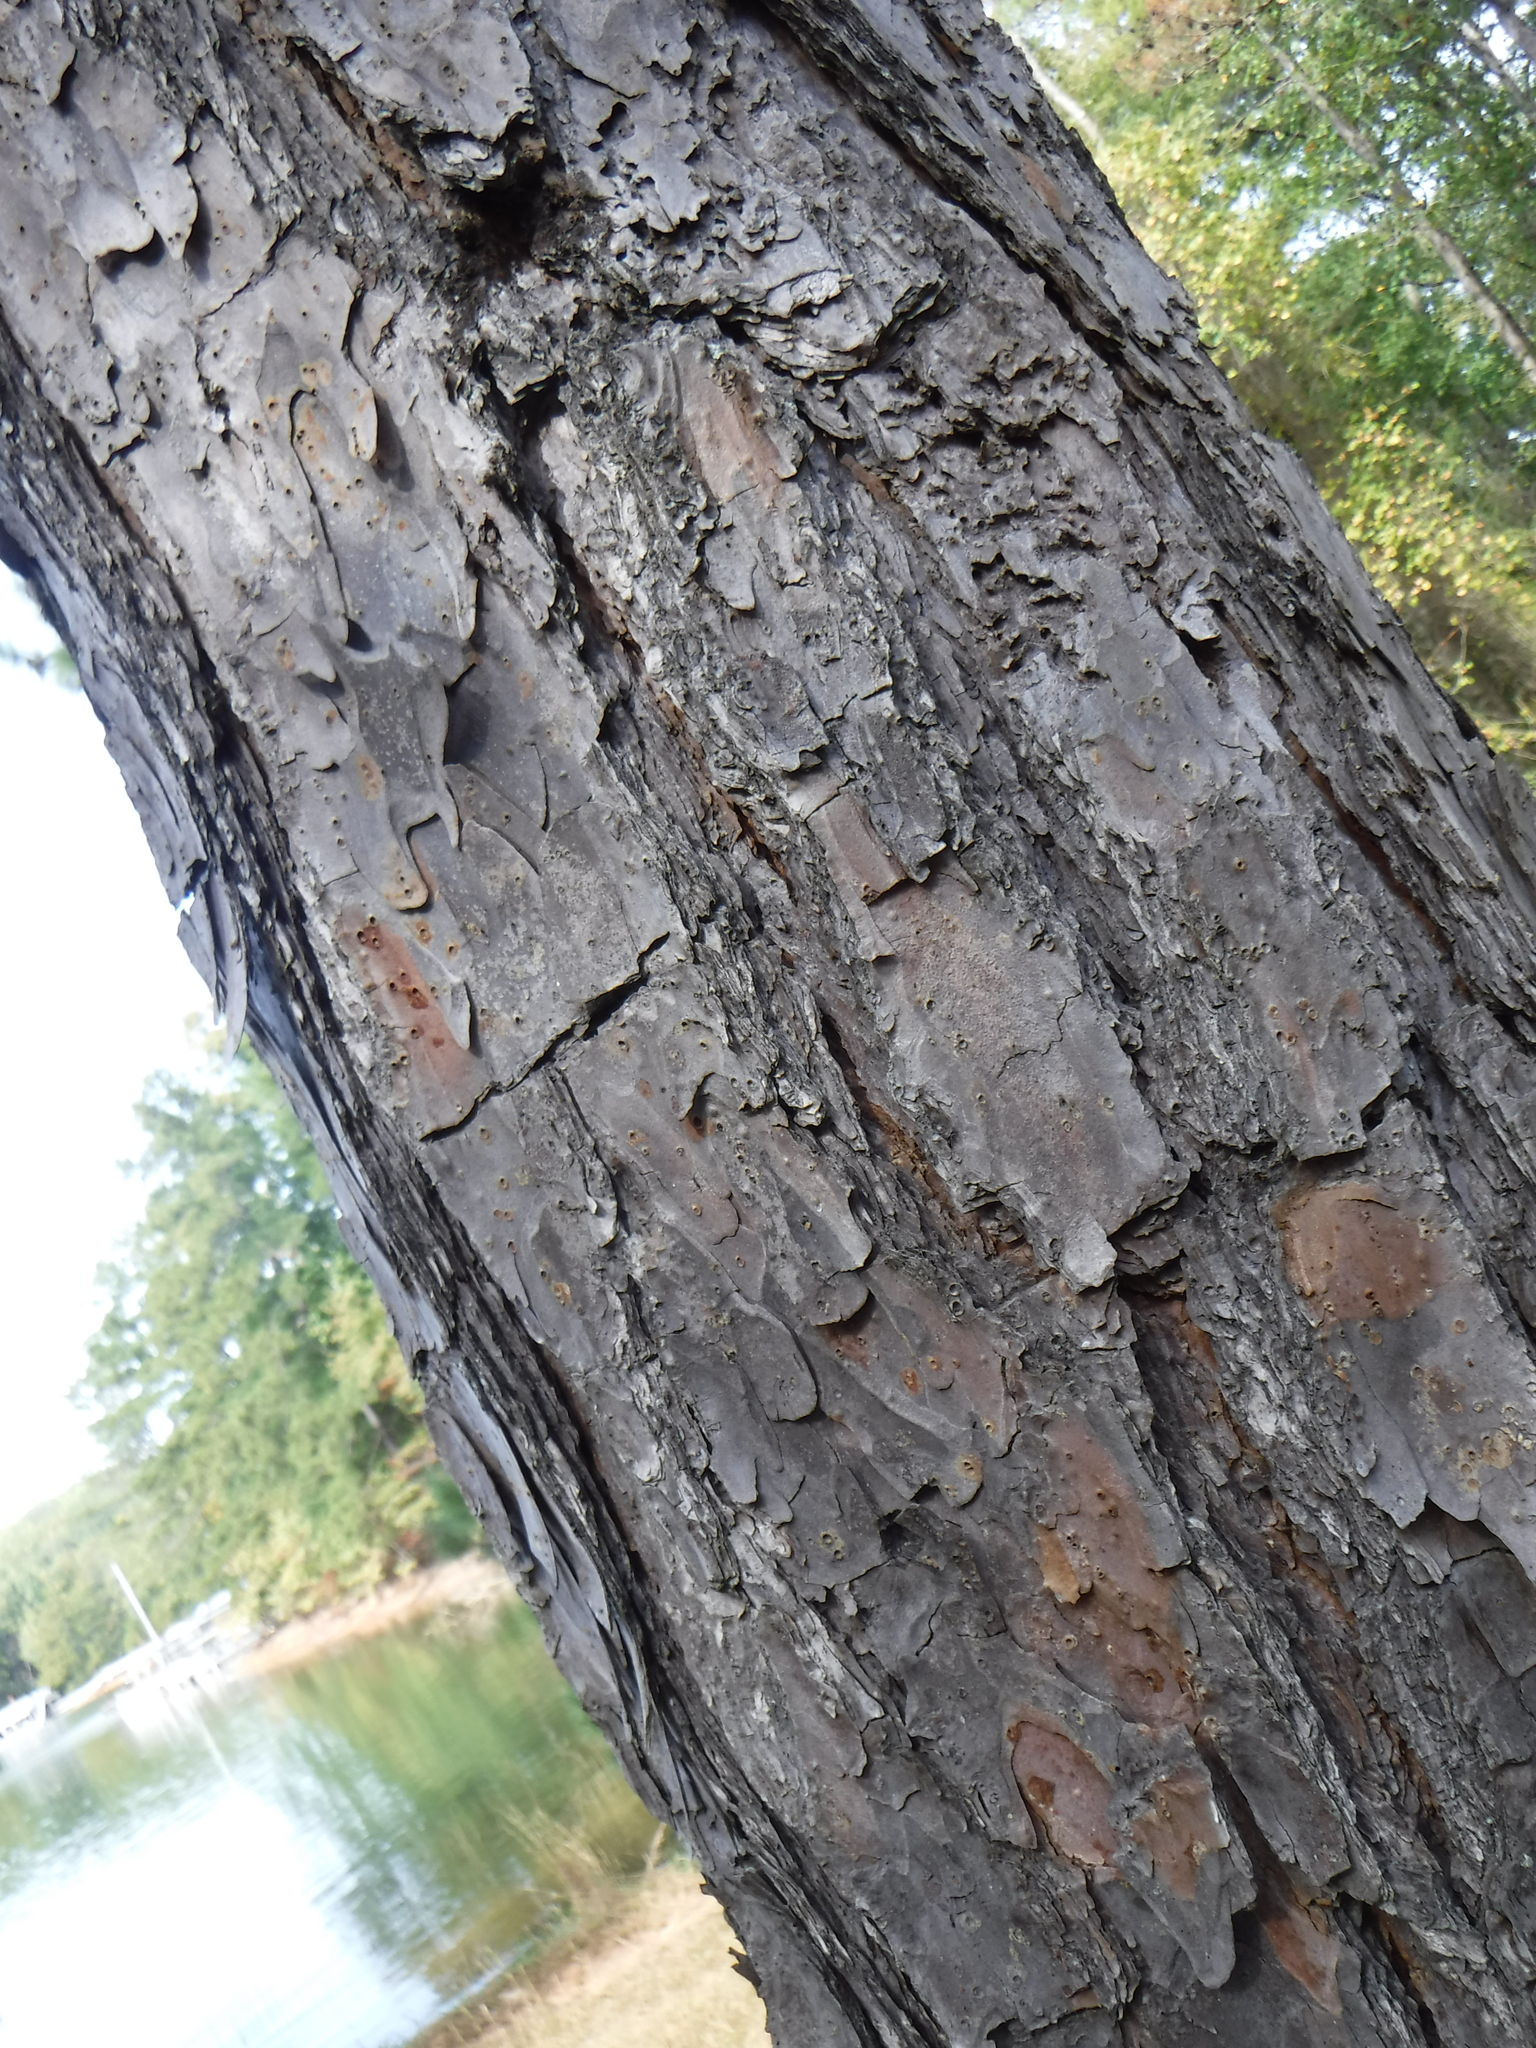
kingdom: Plantae
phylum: Tracheophyta
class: Pinopsida
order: Pinales
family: Pinaceae
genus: Pinus
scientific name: Pinus echinata
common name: Shortleaf pine
